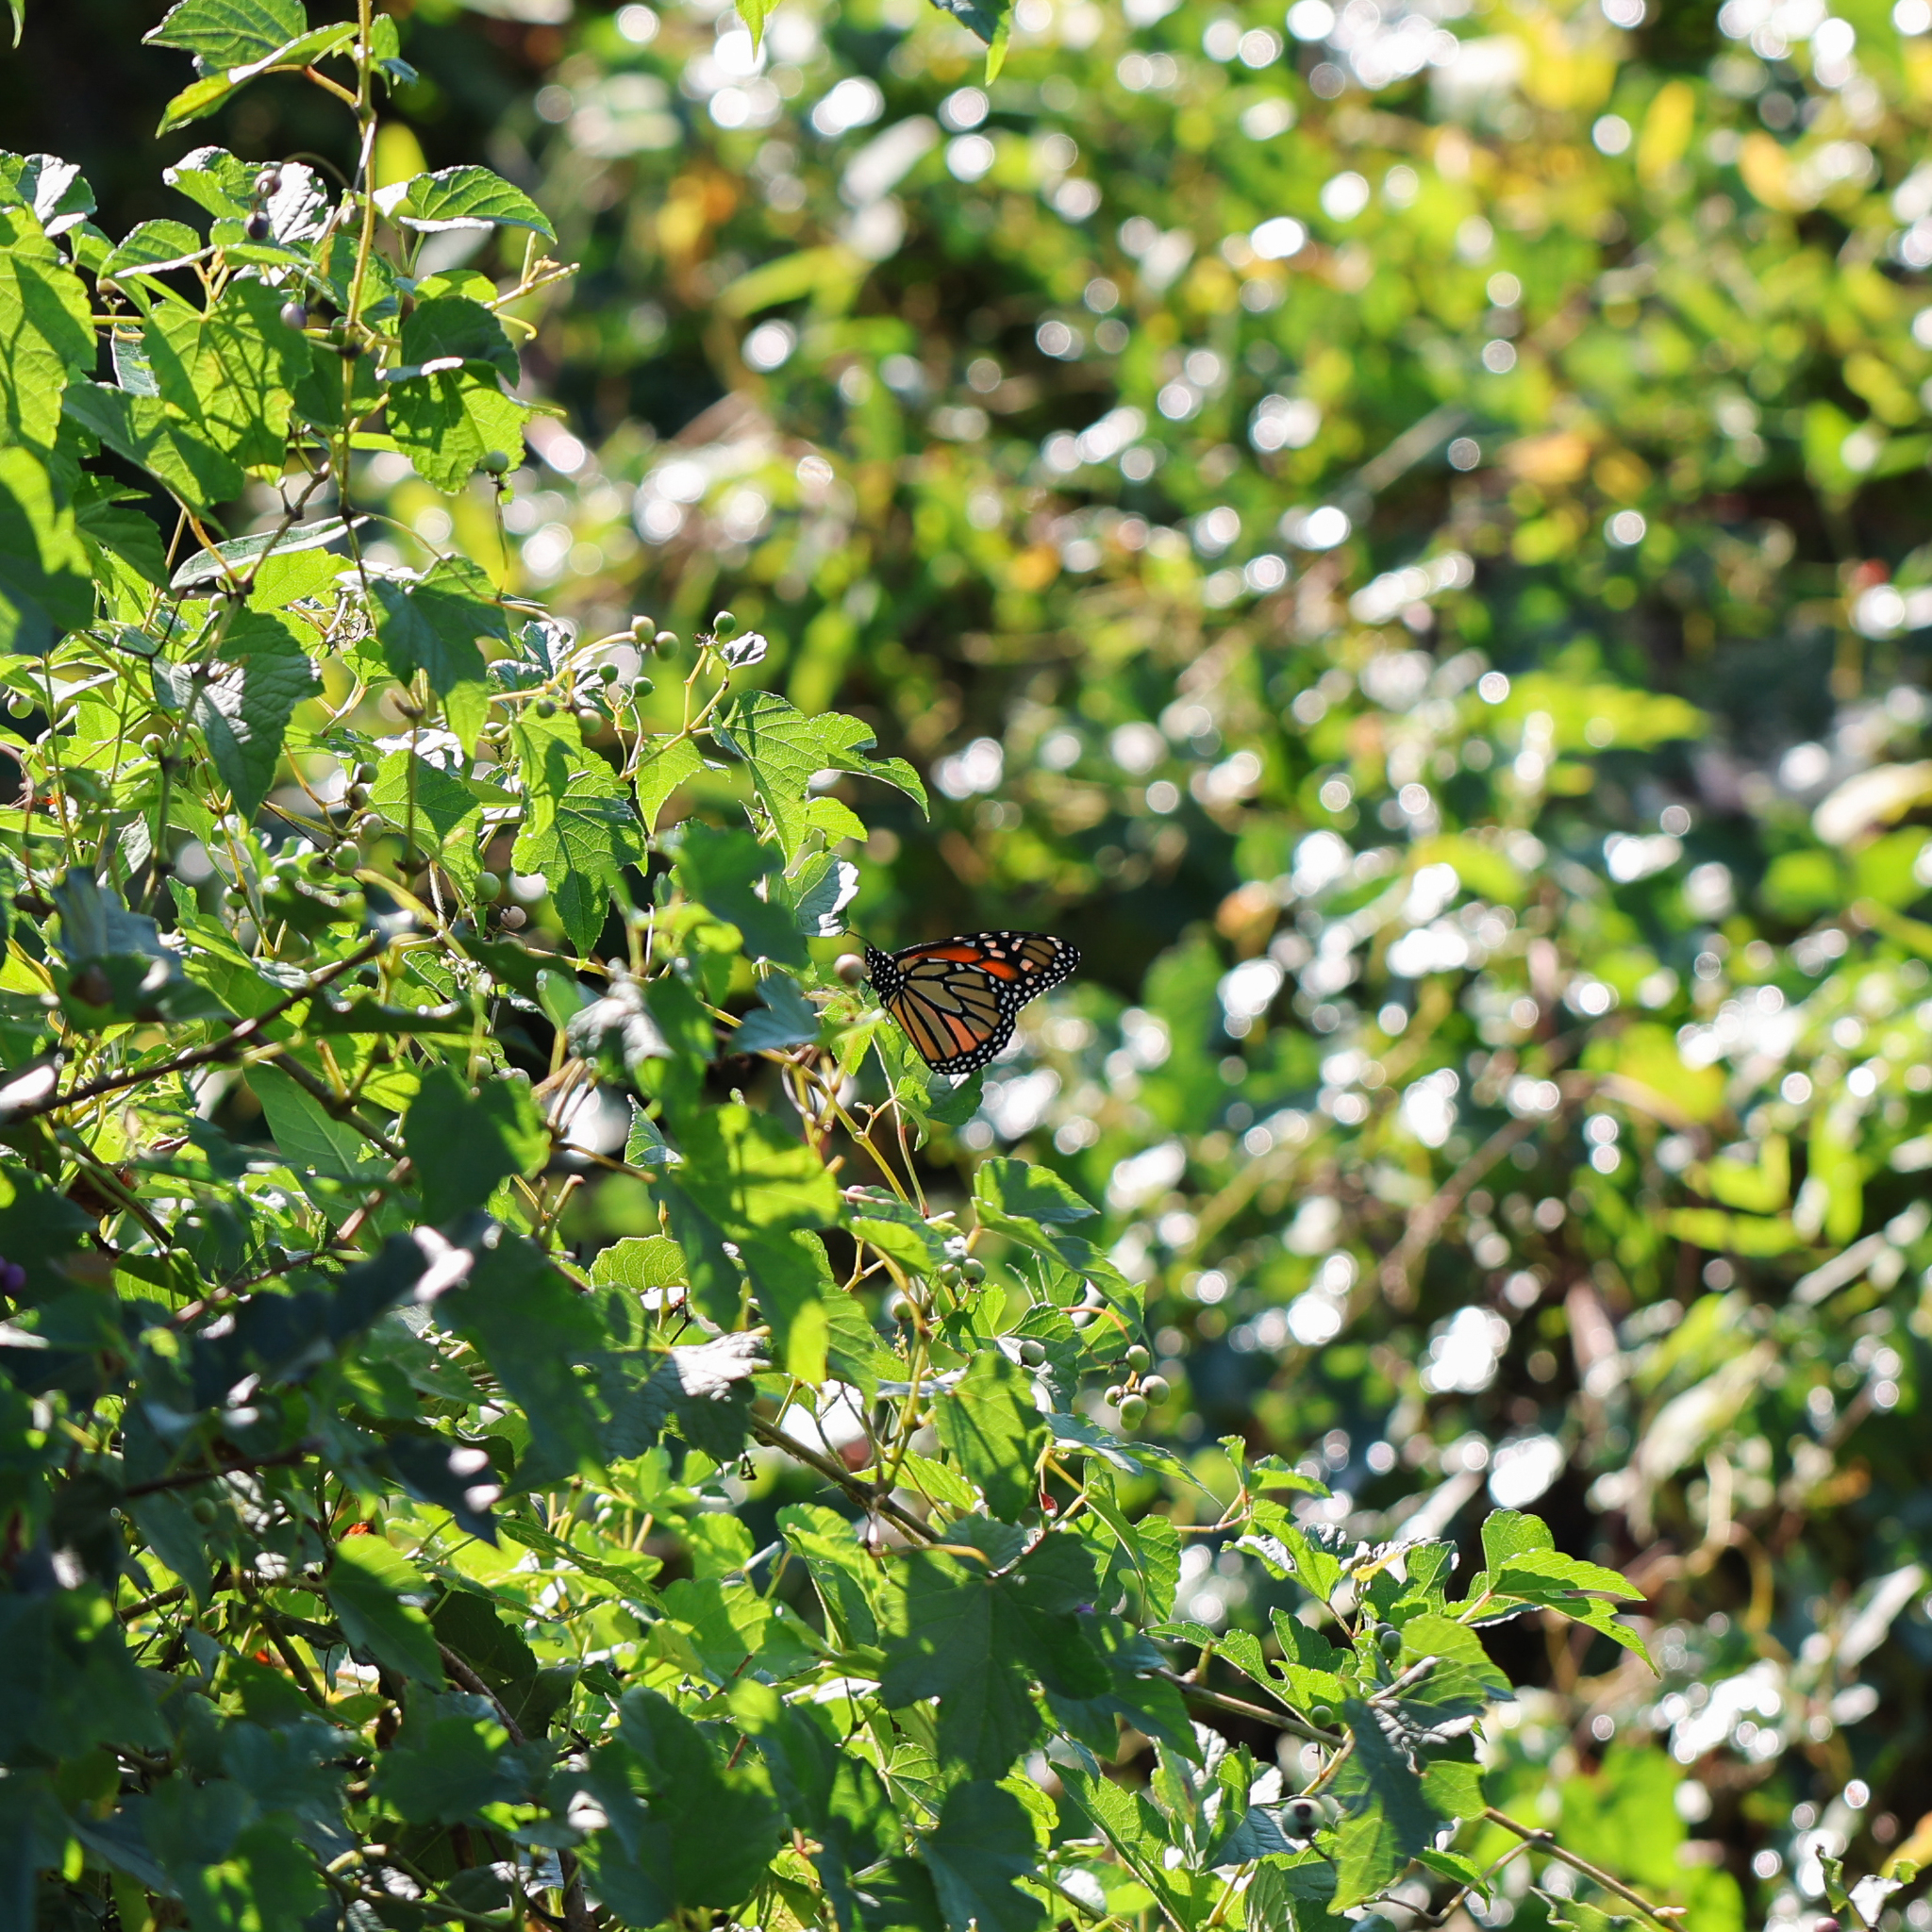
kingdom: Animalia
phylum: Arthropoda
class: Insecta
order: Lepidoptera
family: Nymphalidae
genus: Danaus
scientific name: Danaus plexippus
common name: Monarch
